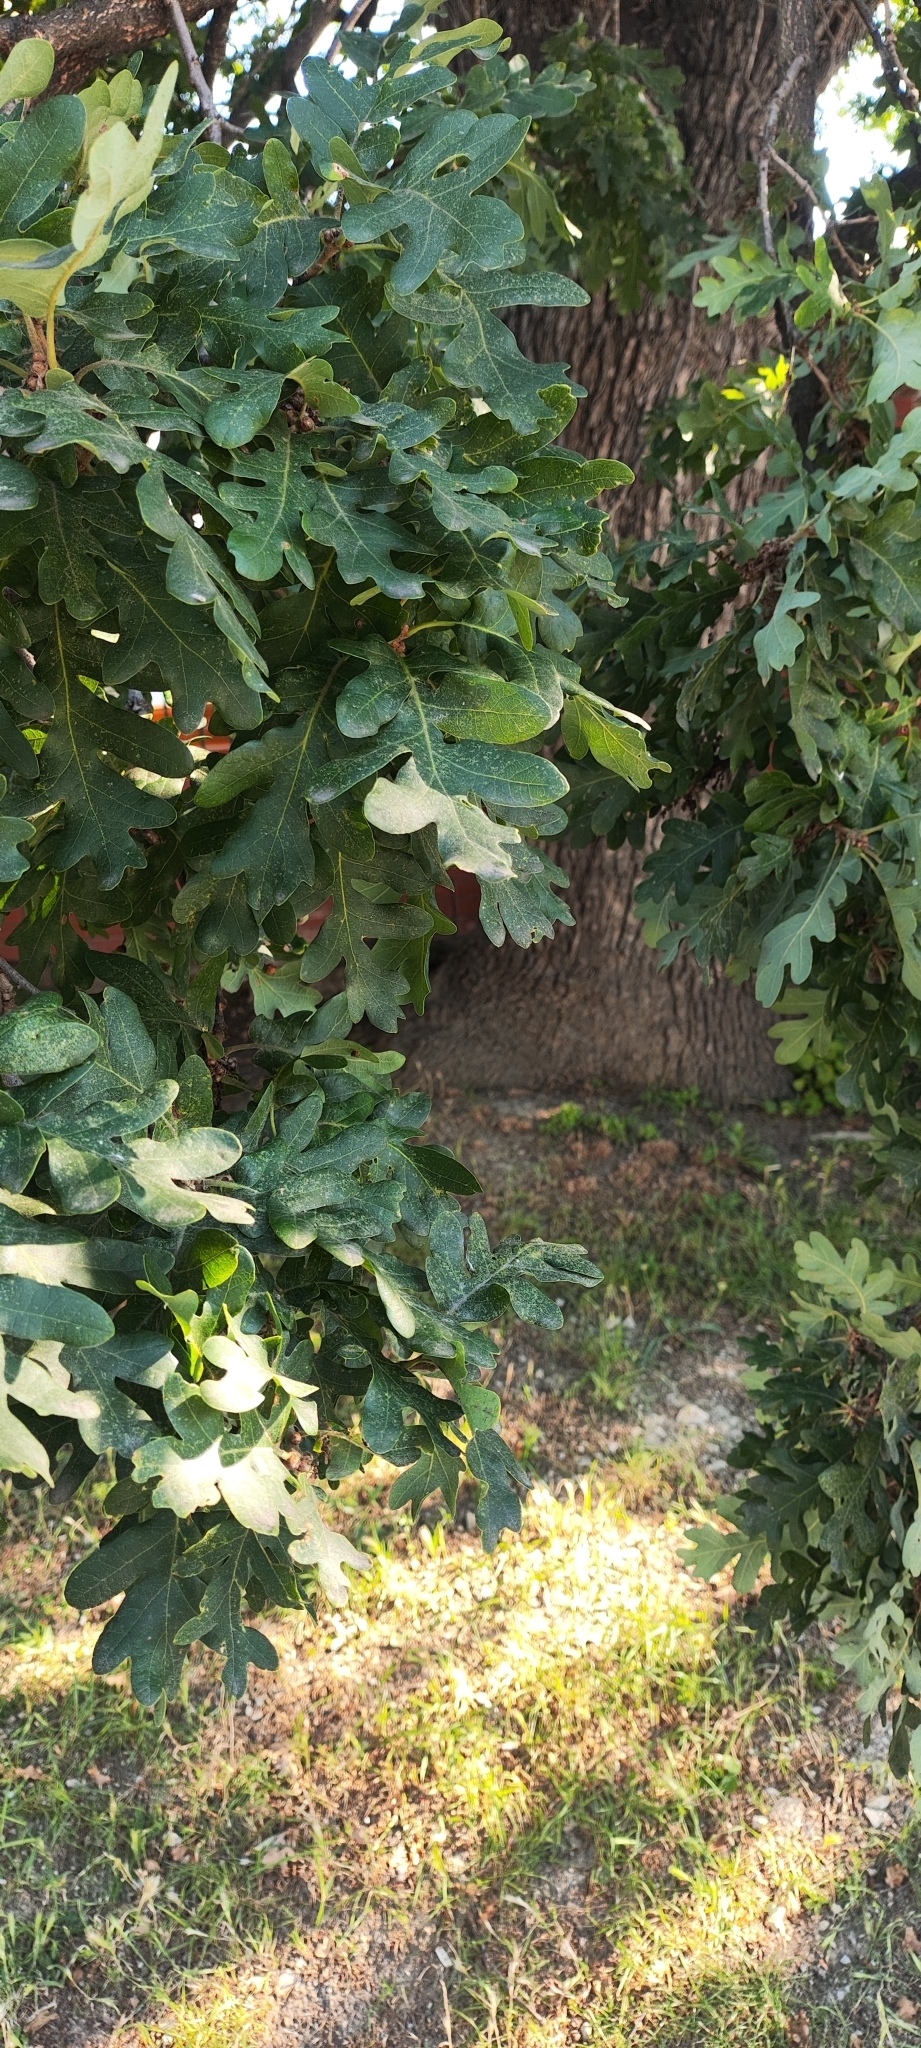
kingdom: Plantae
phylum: Tracheophyta
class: Magnoliopsida
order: Fagales
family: Fagaceae
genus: Quercus
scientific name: Quercus robur
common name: Pedunculate oak
